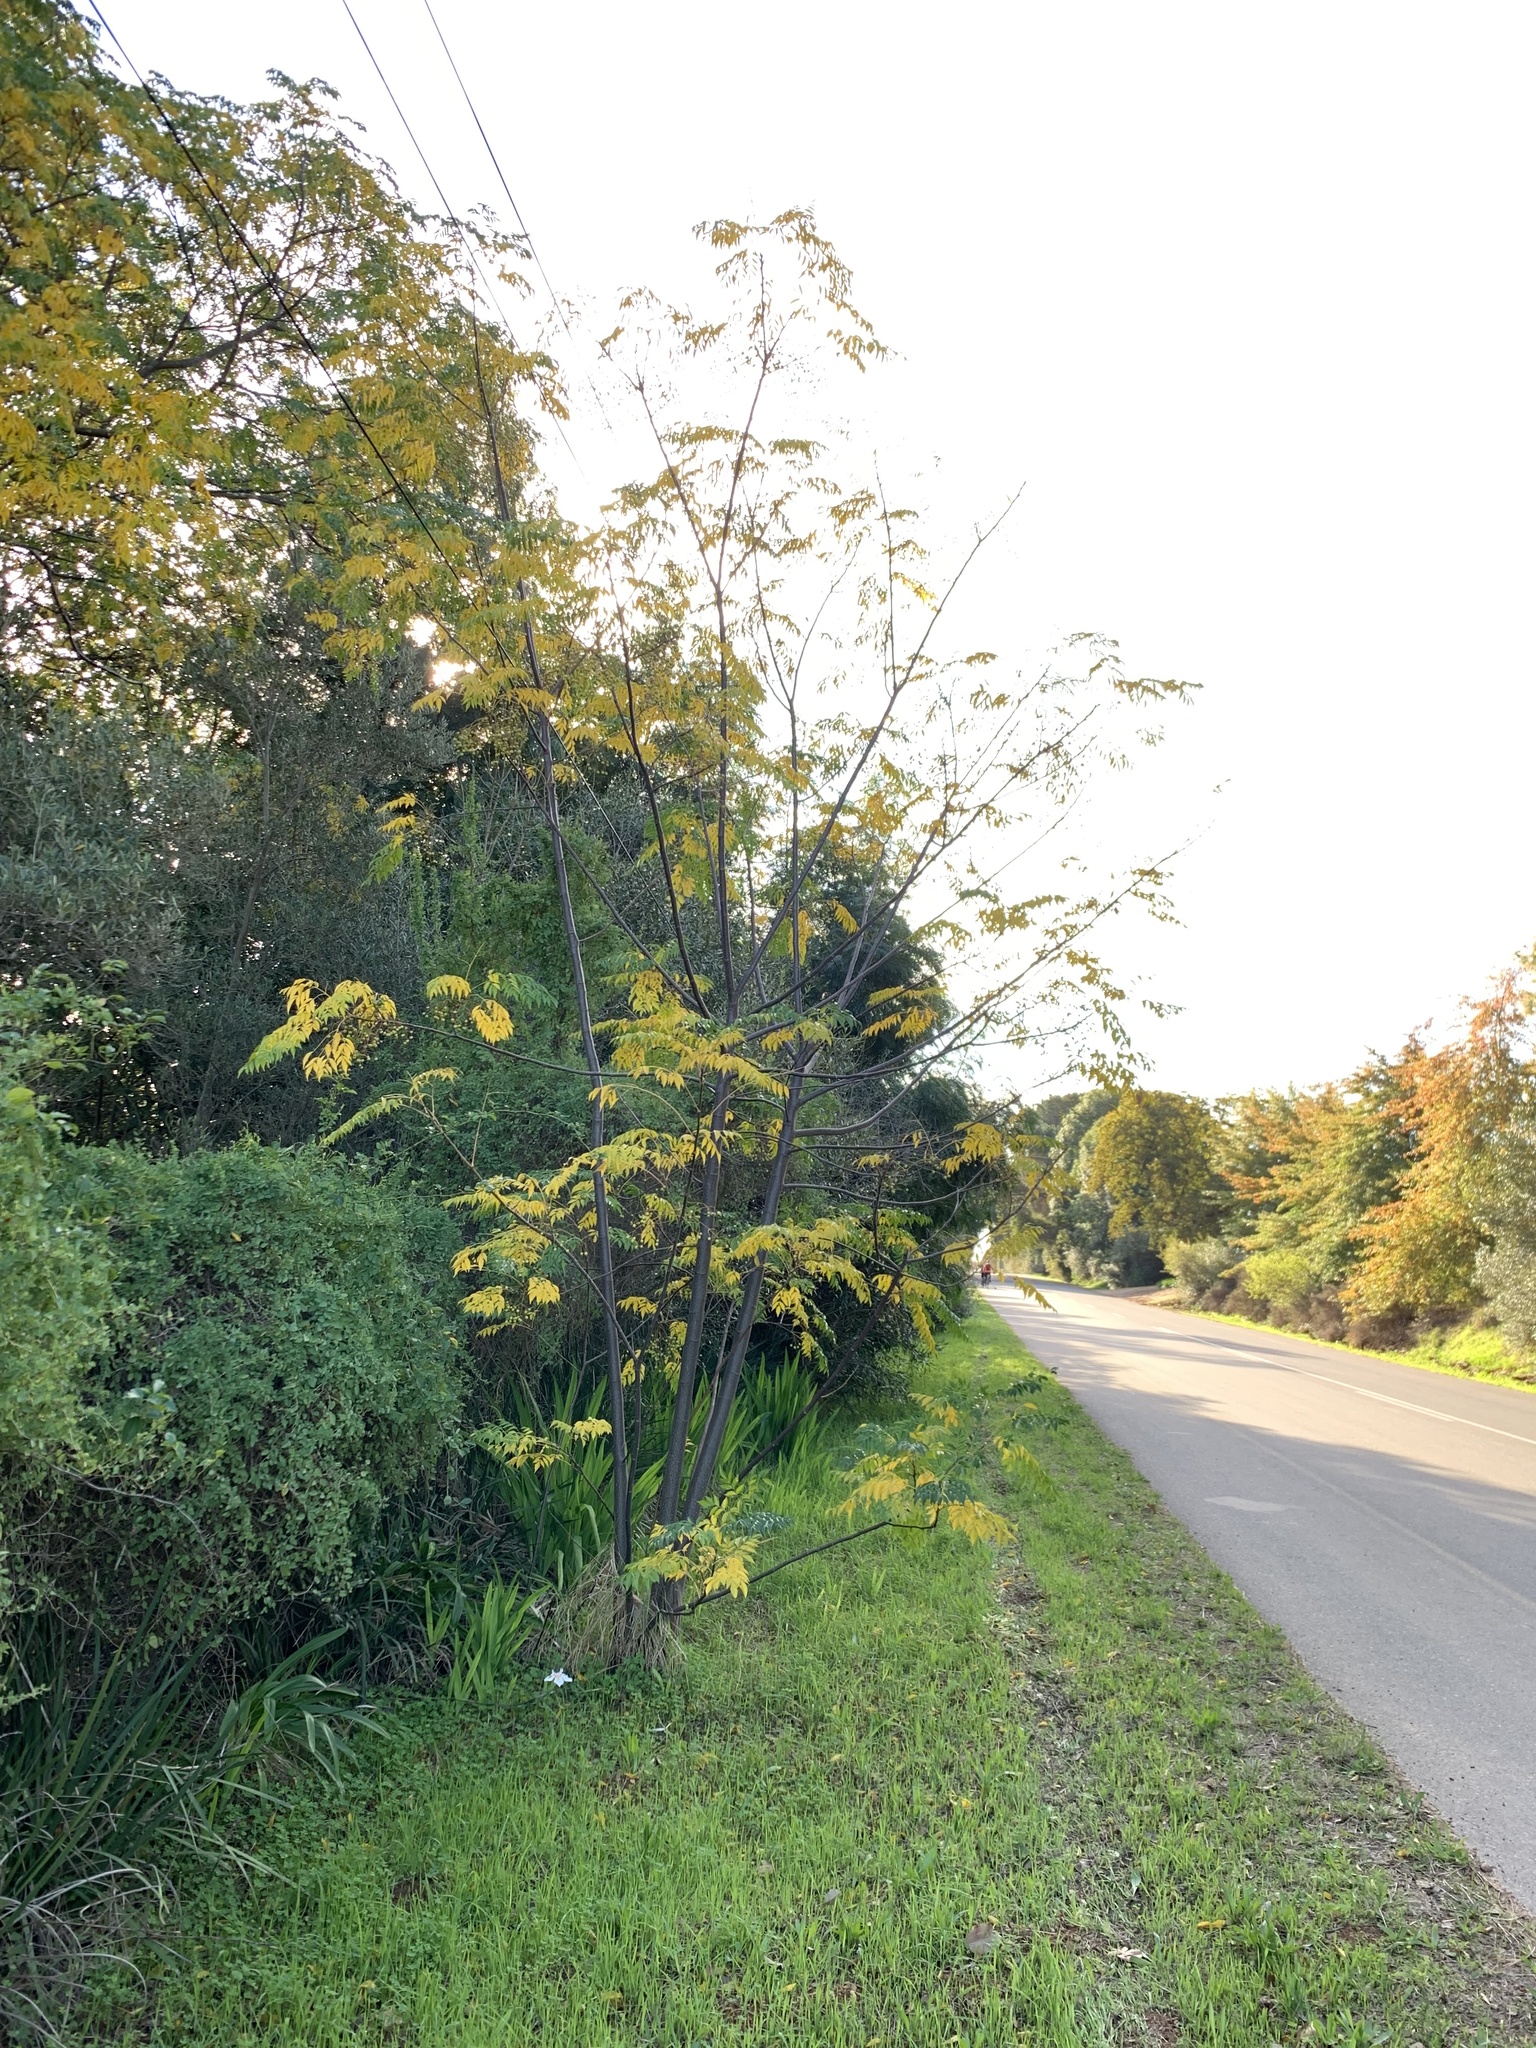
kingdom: Plantae
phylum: Tracheophyta
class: Magnoliopsida
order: Sapindales
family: Meliaceae
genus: Melia
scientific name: Melia azedarach
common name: Chinaberrytree
